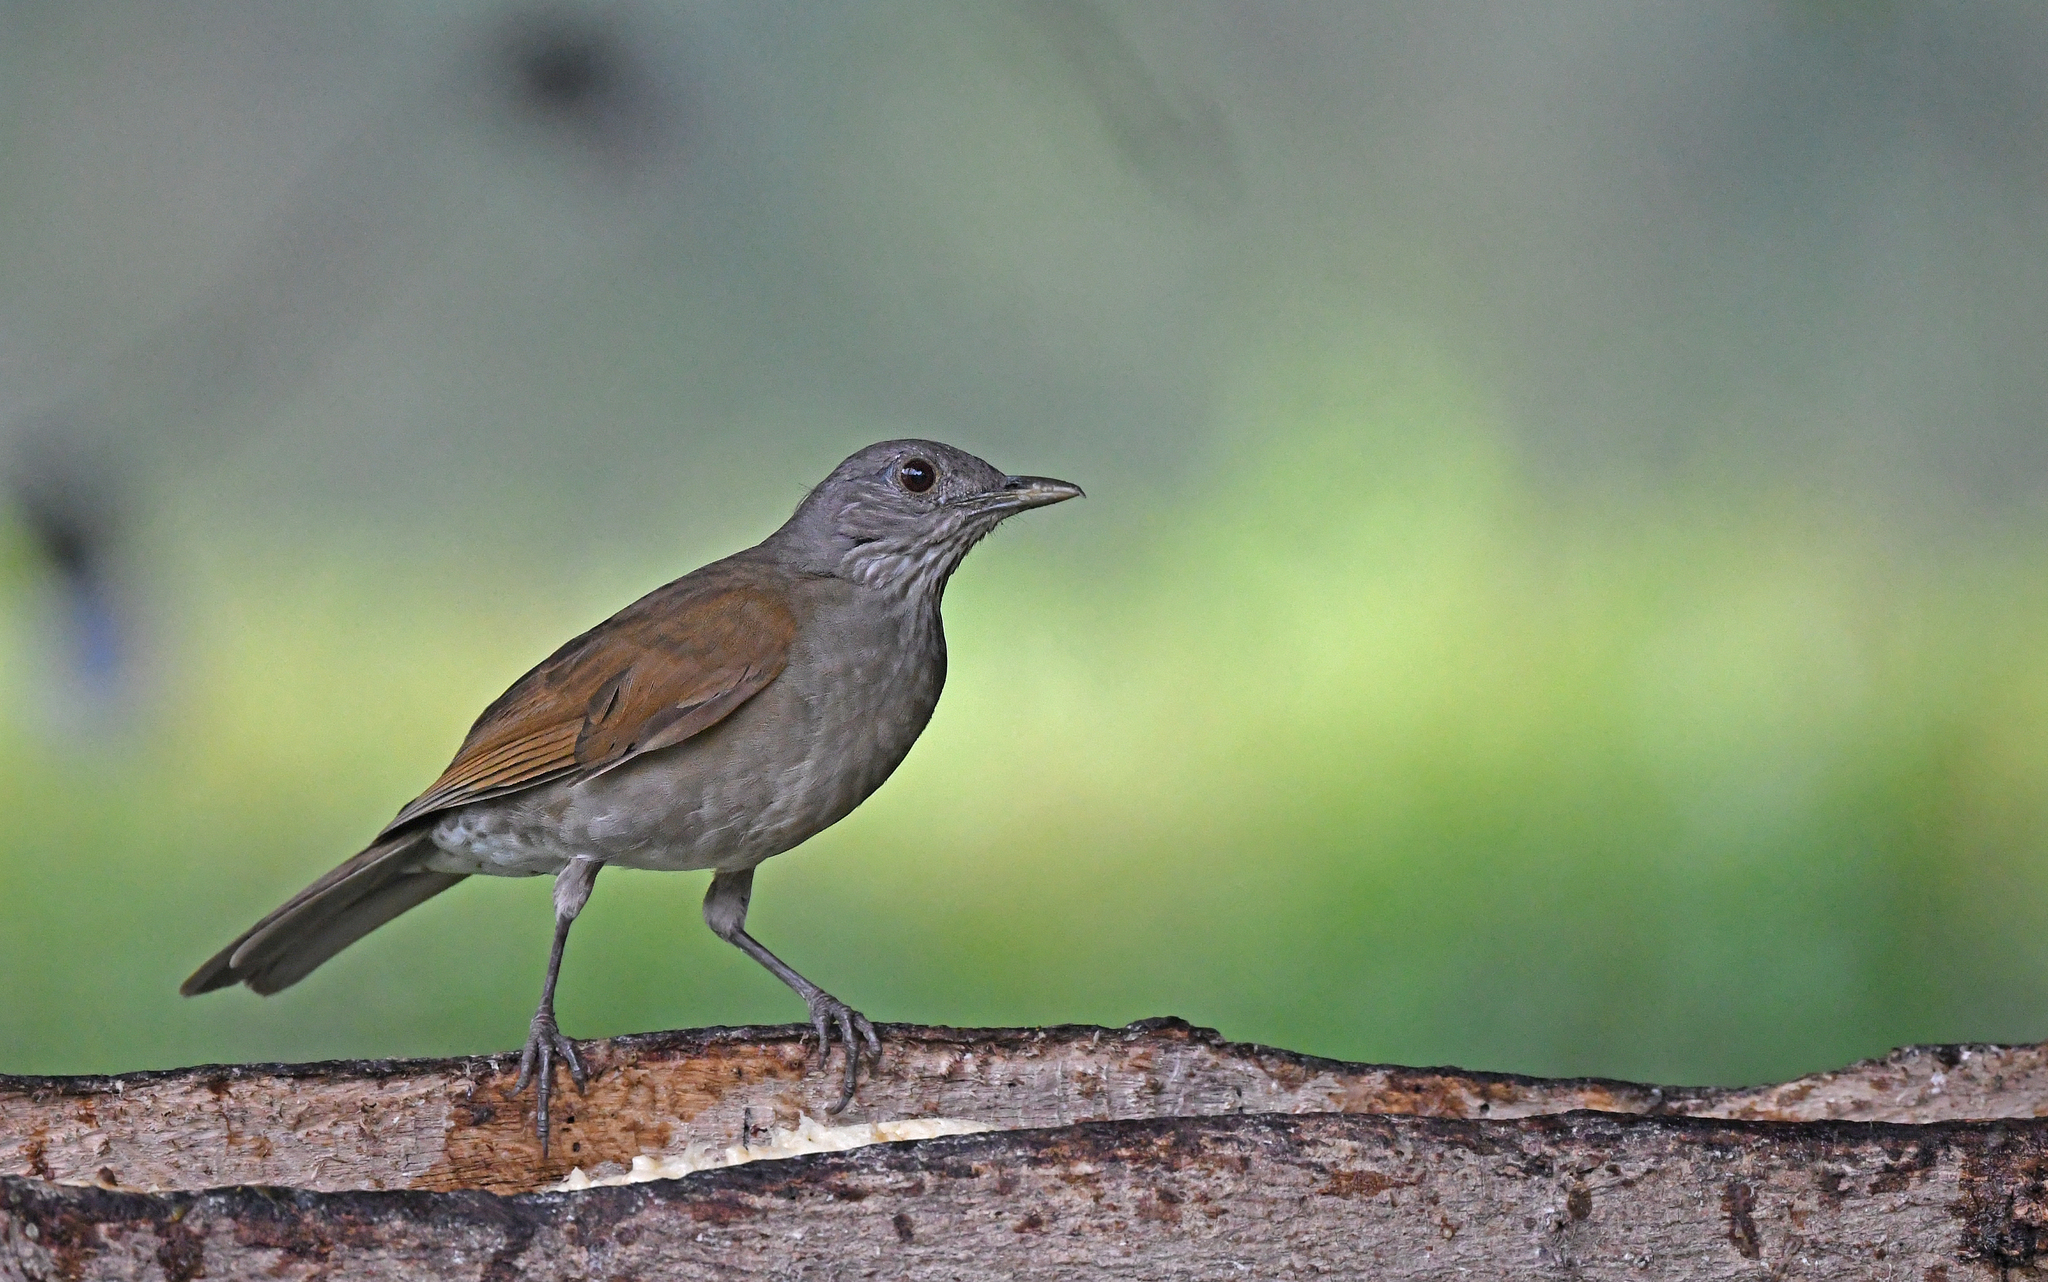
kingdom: Animalia
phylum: Chordata
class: Aves
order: Passeriformes
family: Turdidae
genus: Turdus
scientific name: Turdus leucomelas
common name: Pale-breasted thrush
